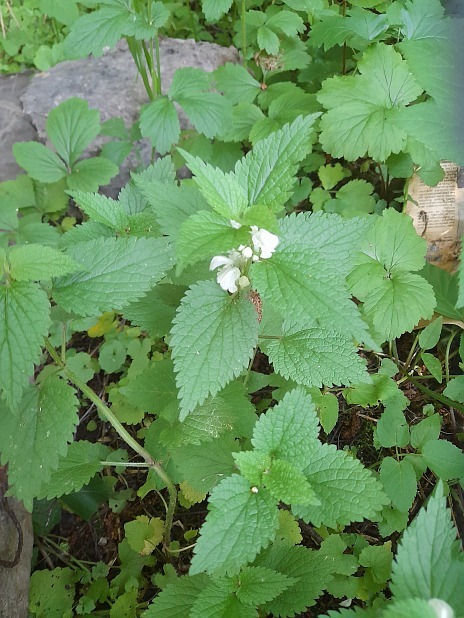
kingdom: Plantae
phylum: Tracheophyta
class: Magnoliopsida
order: Lamiales
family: Lamiaceae
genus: Lamium
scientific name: Lamium album
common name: White dead-nettle
